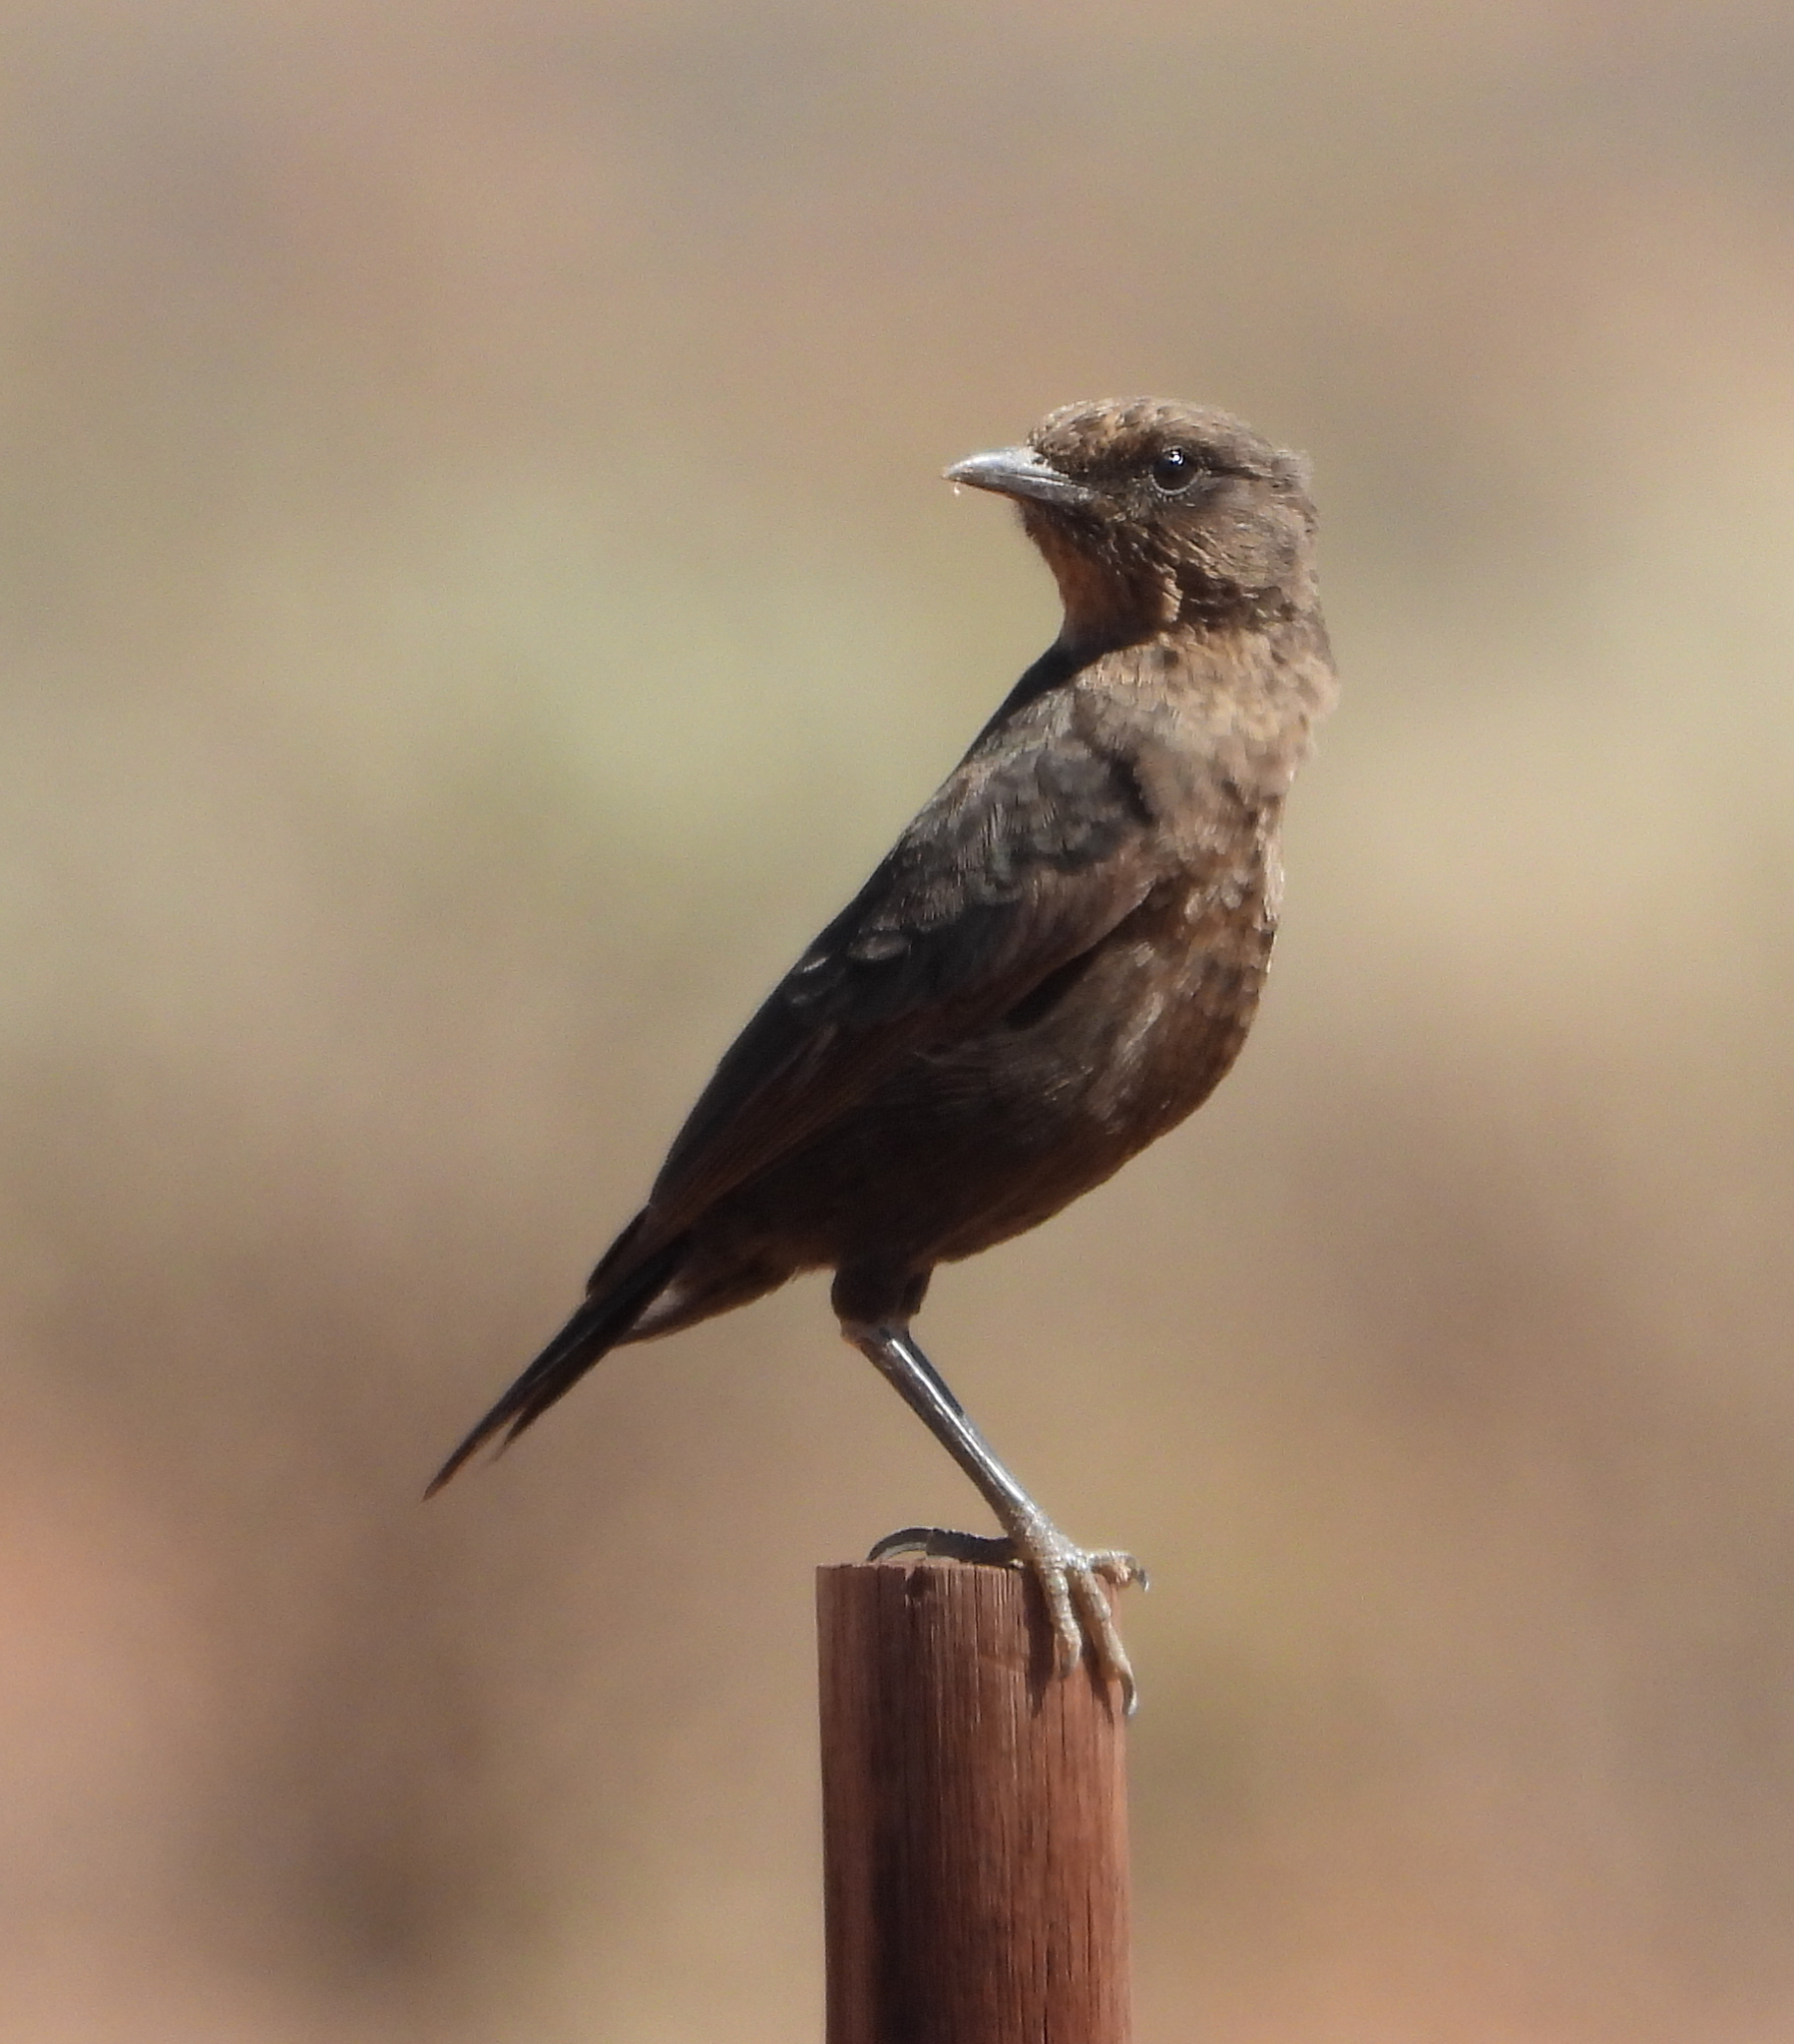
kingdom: Animalia
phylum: Chordata
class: Aves
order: Passeriformes
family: Muscicapidae
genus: Myrmecocichla
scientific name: Myrmecocichla formicivora
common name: Ant-eating chat
